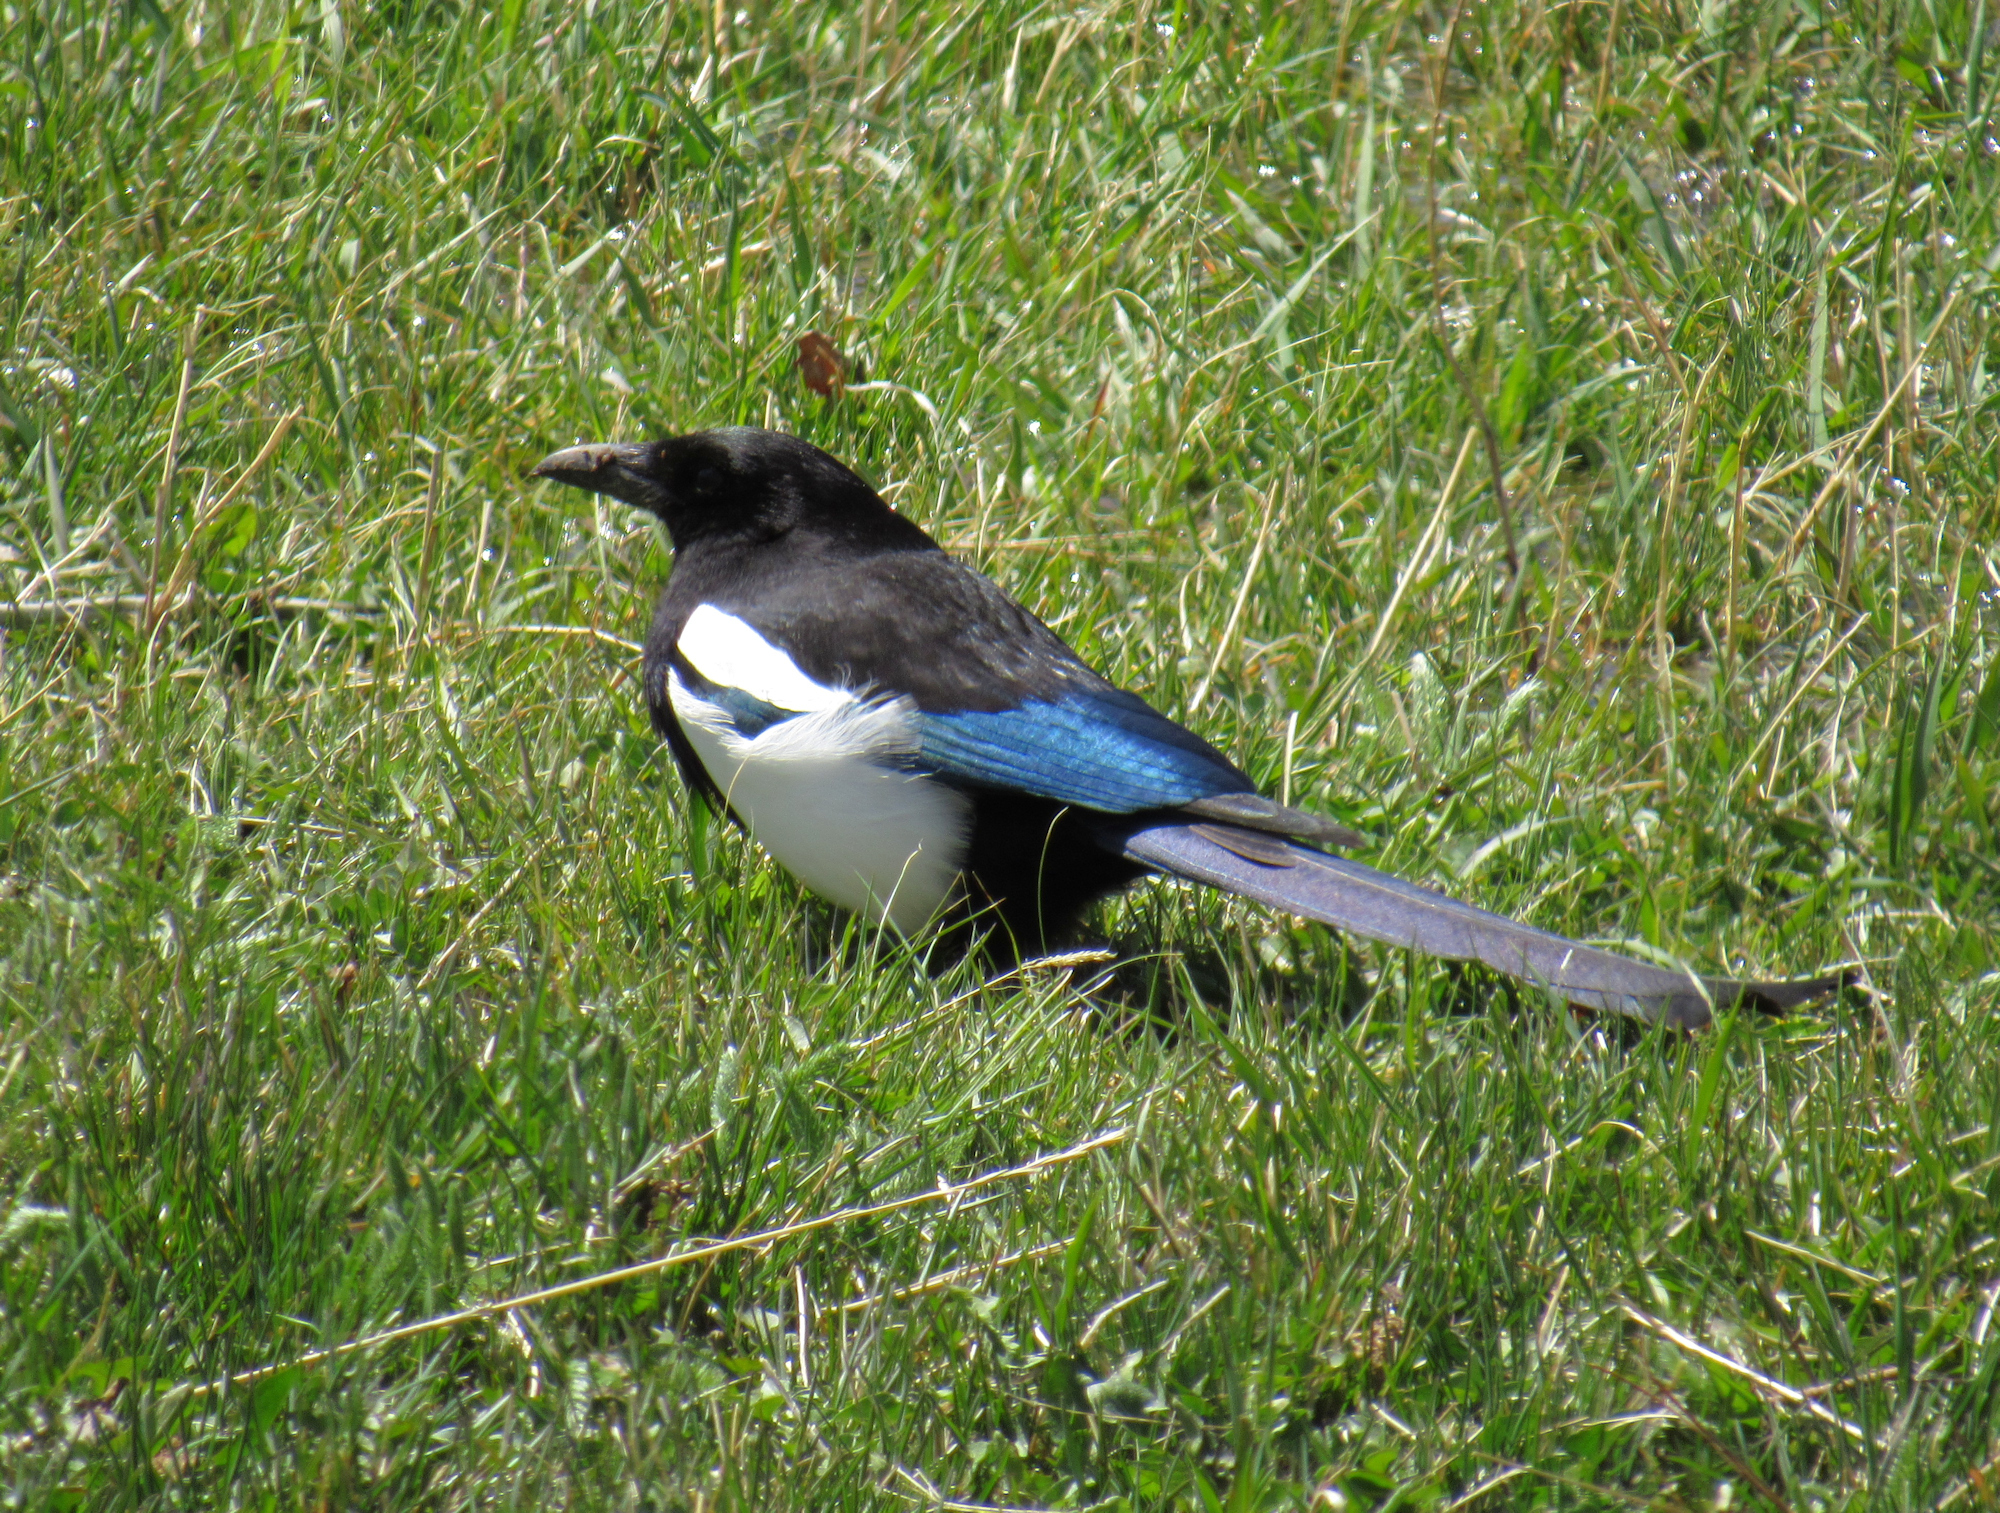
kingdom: Animalia
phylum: Chordata
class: Aves
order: Passeriformes
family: Corvidae
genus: Pica
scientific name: Pica hudsonia
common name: Black-billed magpie
